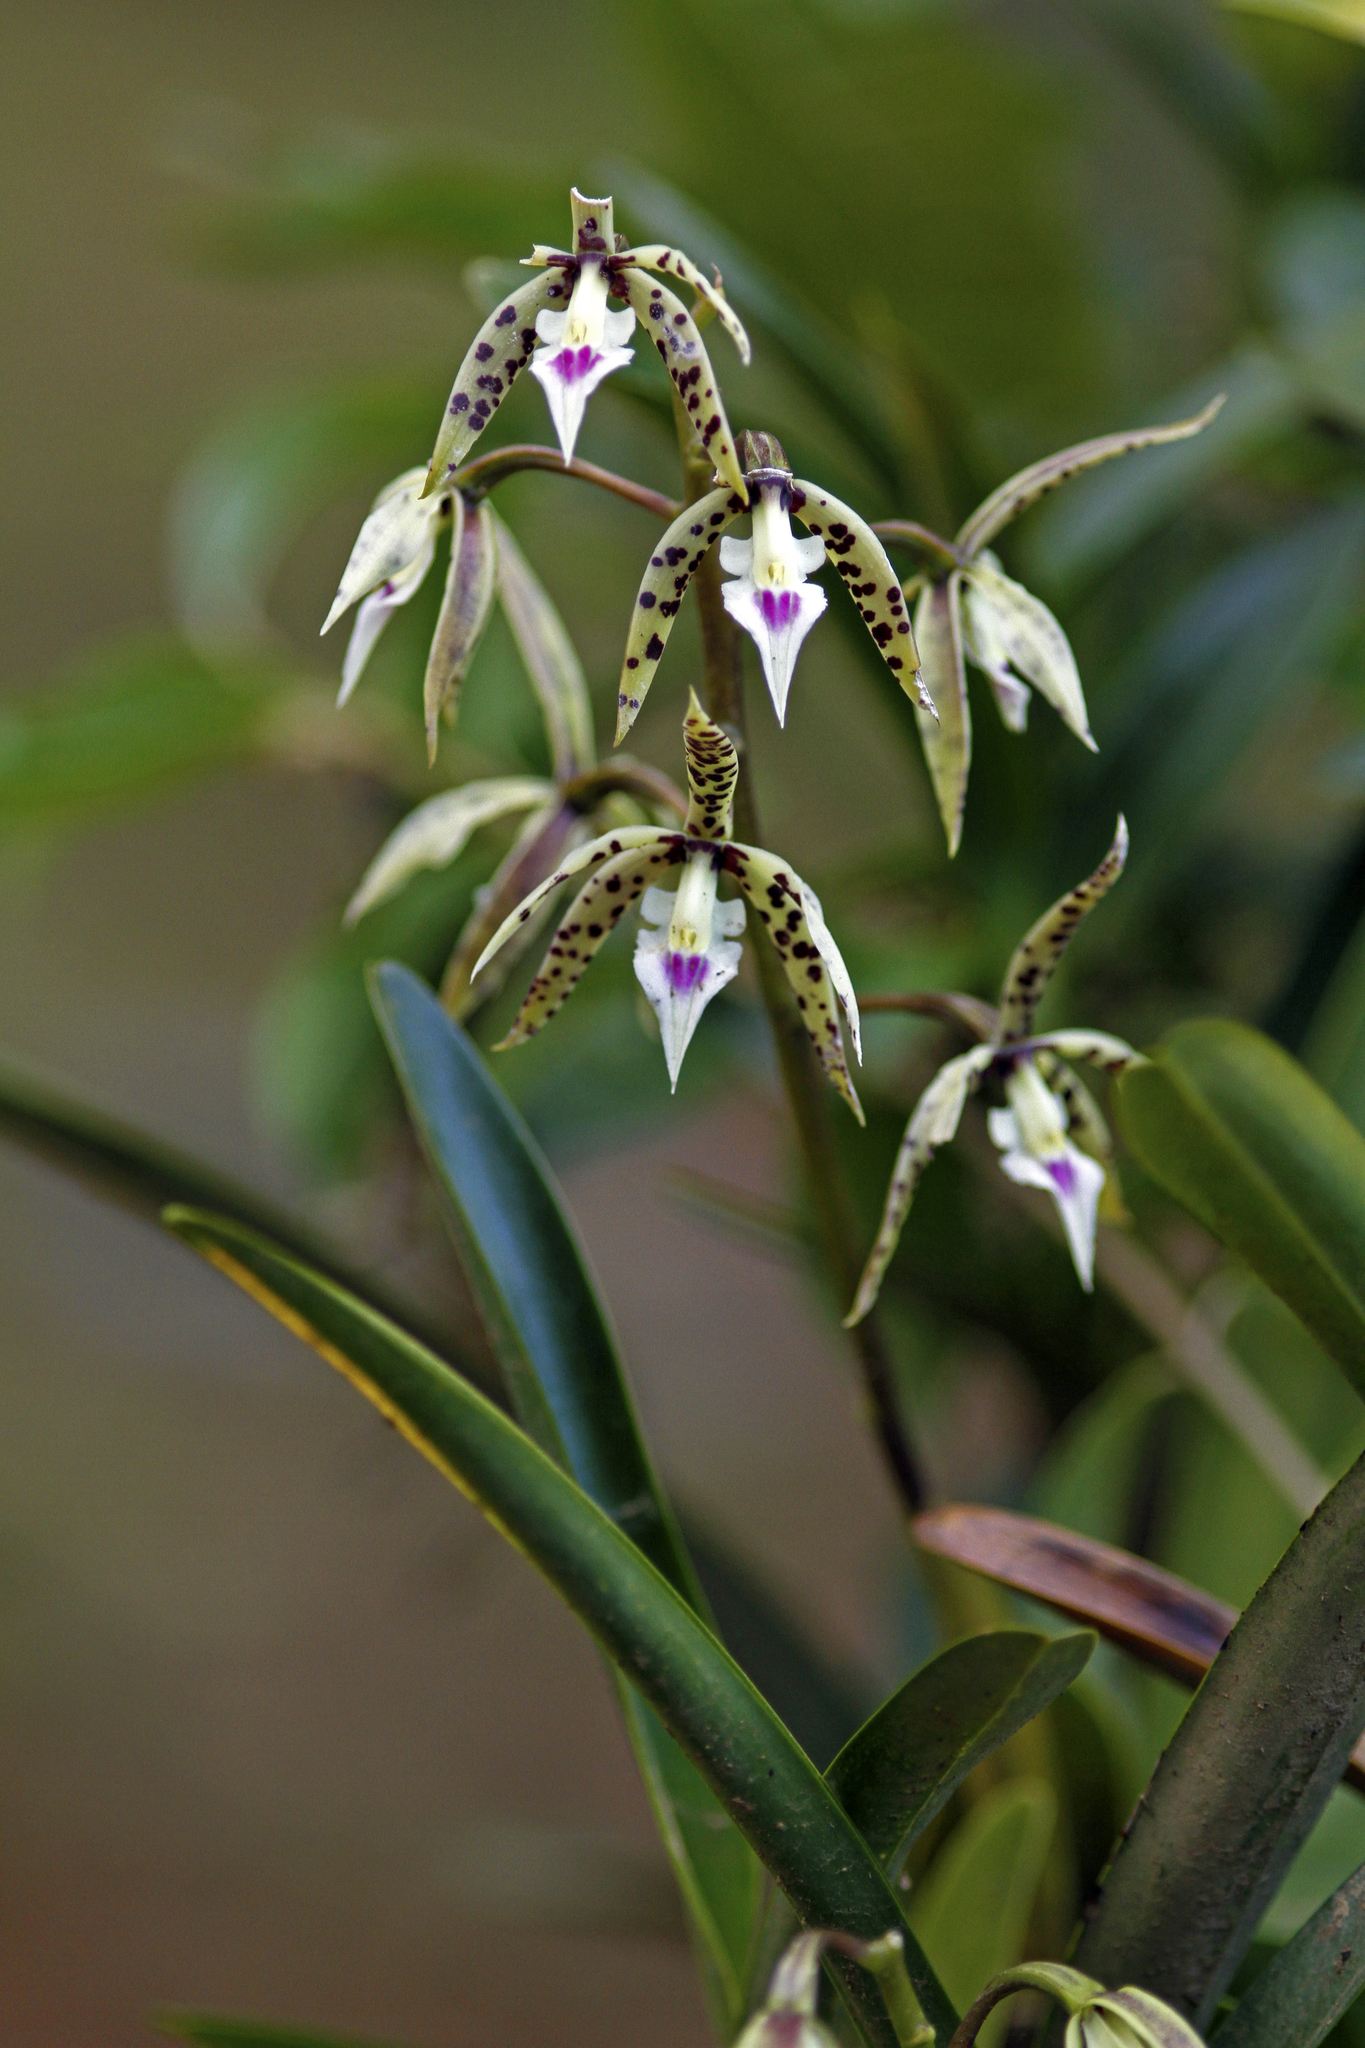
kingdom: Plantae
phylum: Tracheophyta
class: Liliopsida
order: Asparagales
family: Orchidaceae
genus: Prosthechea
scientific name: Prosthechea prismatocarpa
